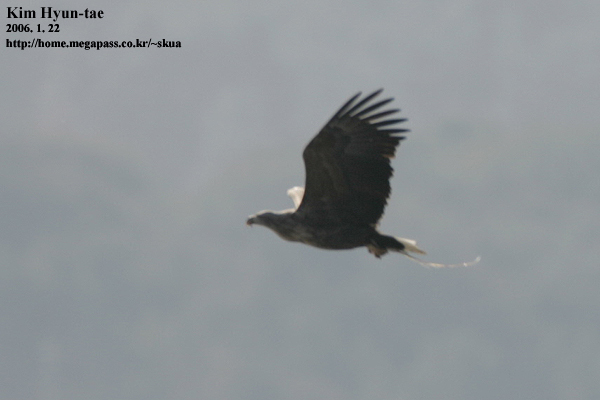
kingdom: Animalia
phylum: Chordata
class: Aves
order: Accipitriformes
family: Accipitridae
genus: Haliaeetus
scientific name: Haliaeetus albicilla
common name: White-tailed eagle
